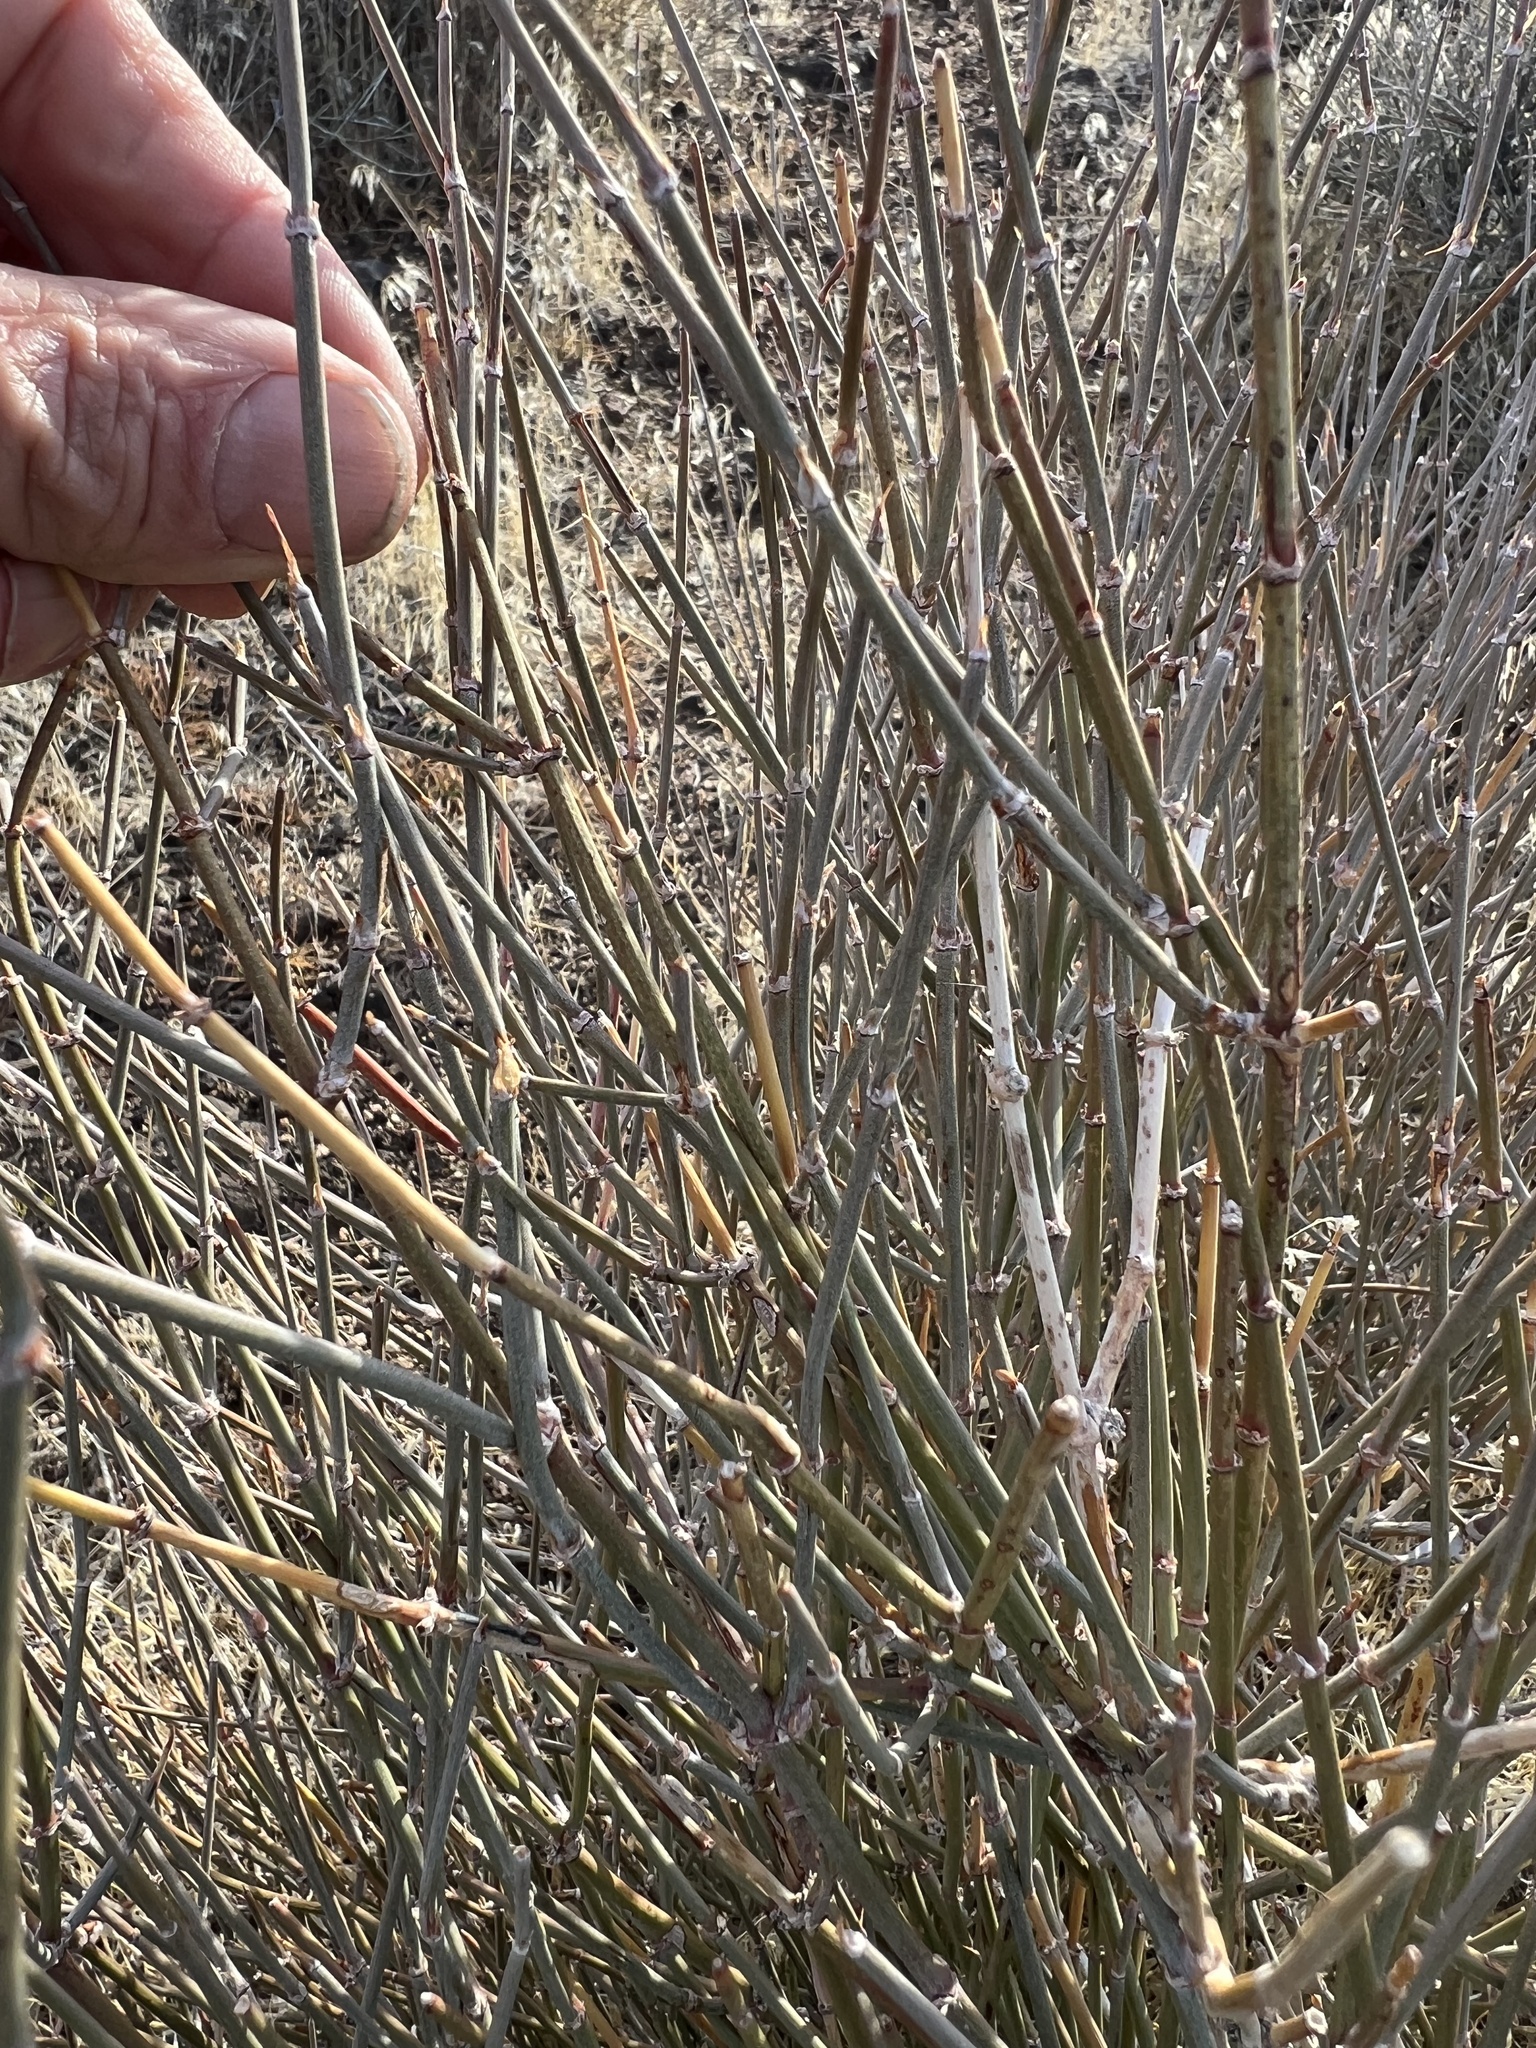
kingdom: Plantae
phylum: Tracheophyta
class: Gnetopsida
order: Ephedrales
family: Ephedraceae
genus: Ephedra
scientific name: Ephedra nevadensis
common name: Gray ephedra
